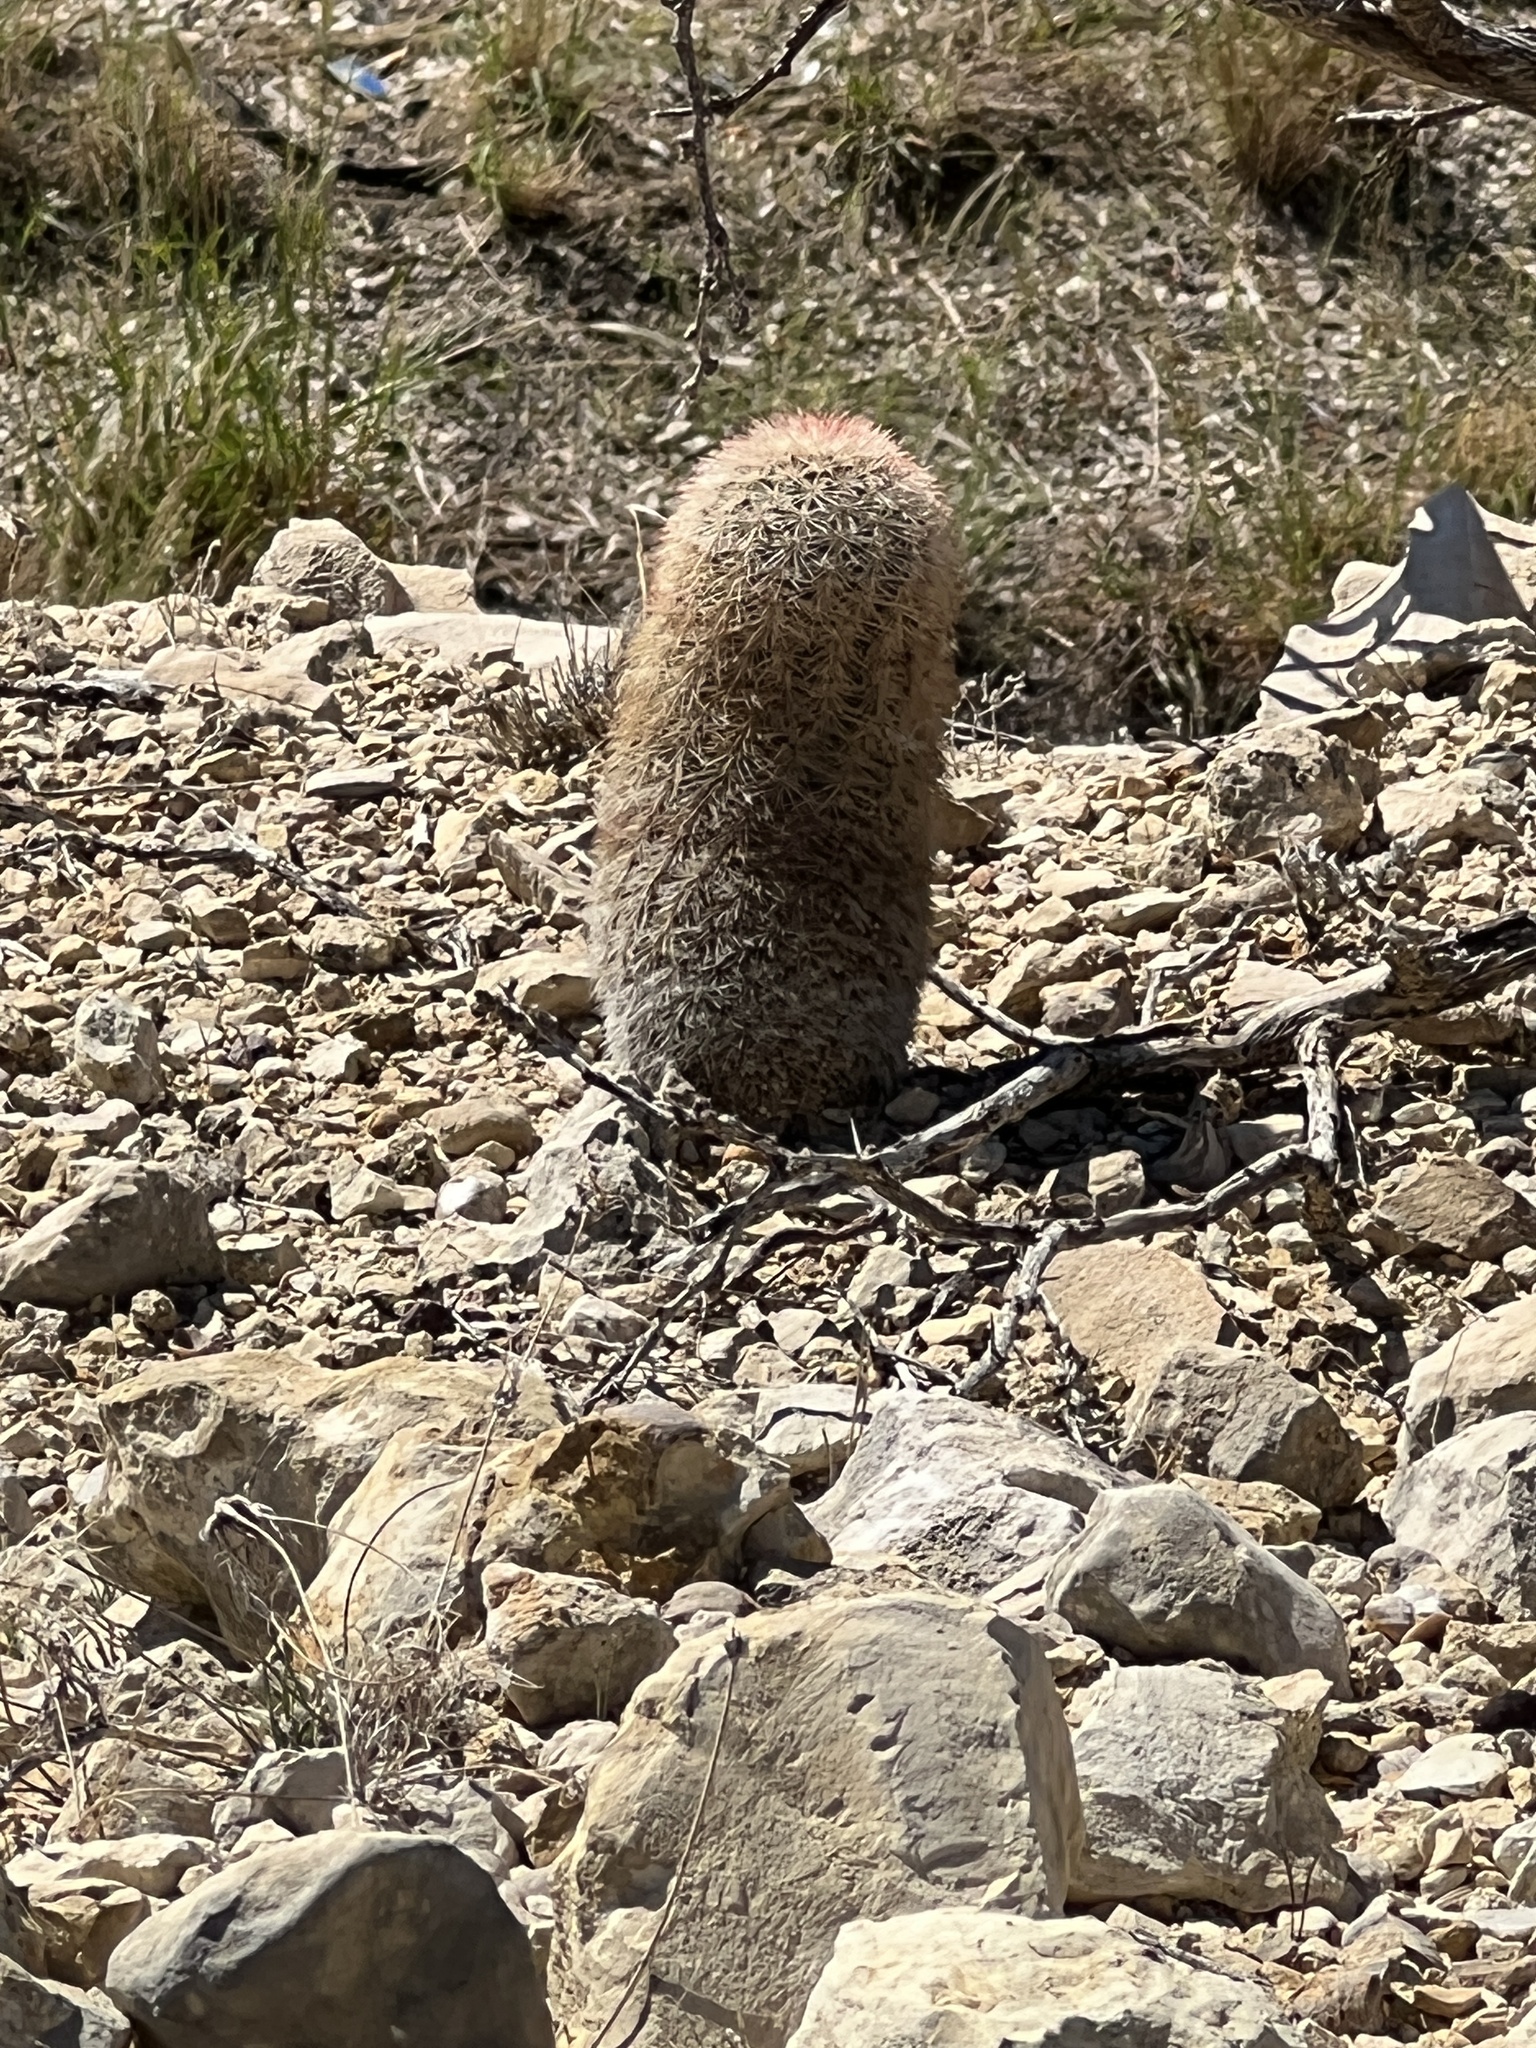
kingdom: Plantae
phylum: Tracheophyta
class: Magnoliopsida
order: Caryophyllales
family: Cactaceae
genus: Echinocereus
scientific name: Echinocereus dasyacanthus
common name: Spiny hedgehog cactus
